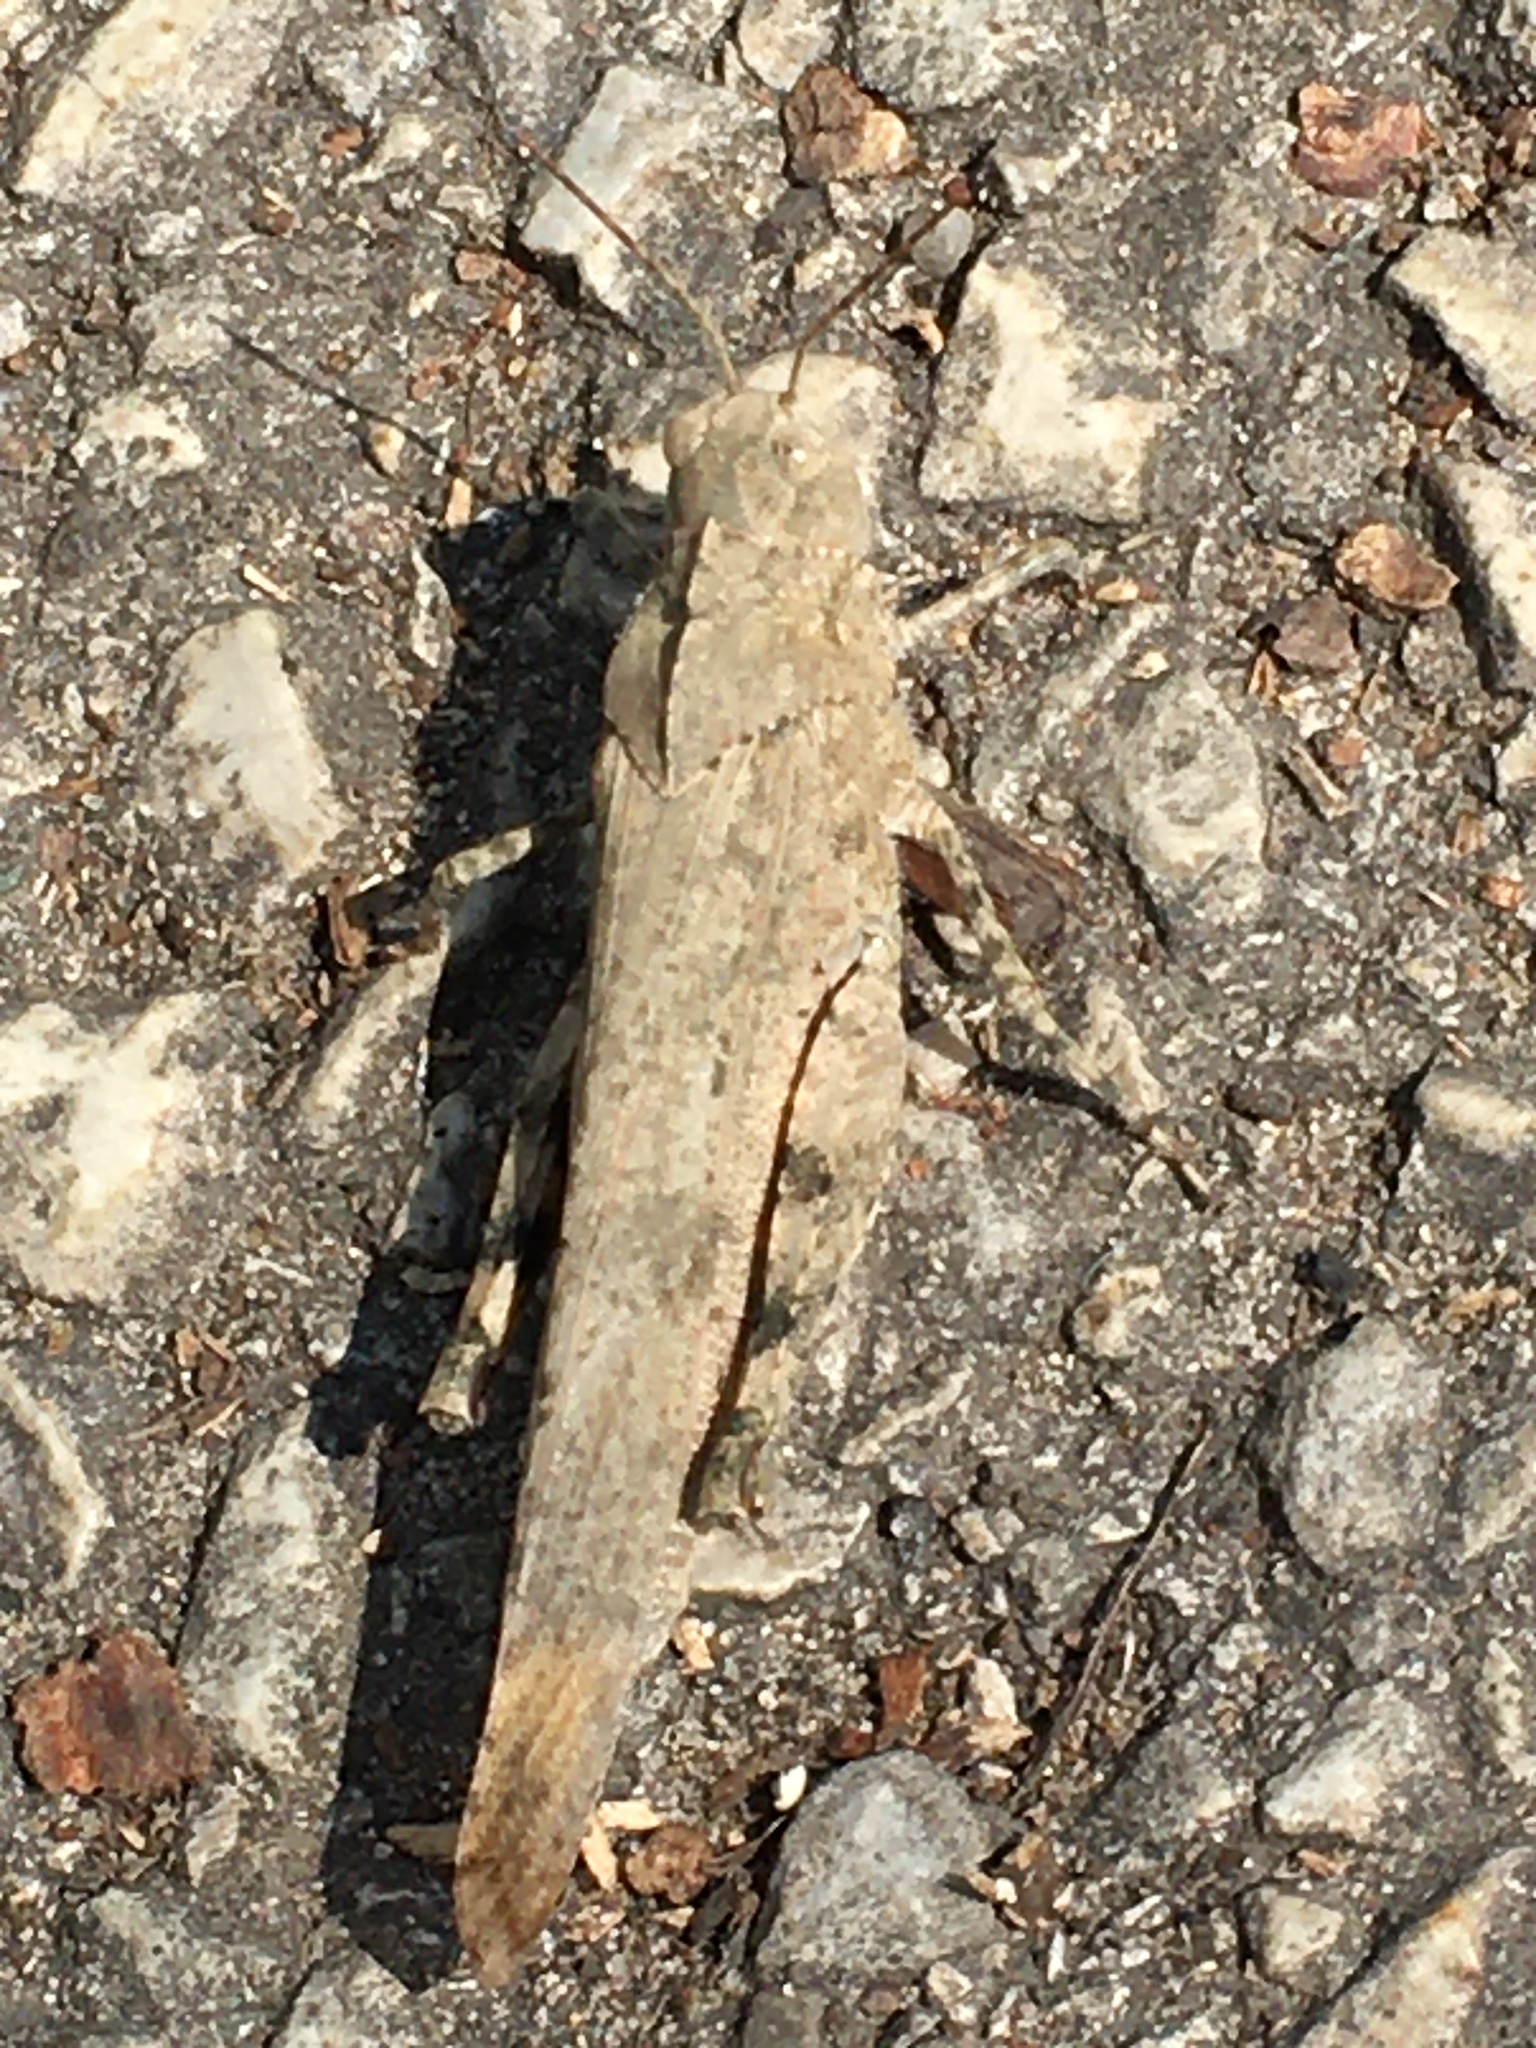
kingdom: Animalia
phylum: Arthropoda
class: Insecta
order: Orthoptera
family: Acrididae
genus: Dissosteira
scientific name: Dissosteira carolina
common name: Carolina grasshopper
